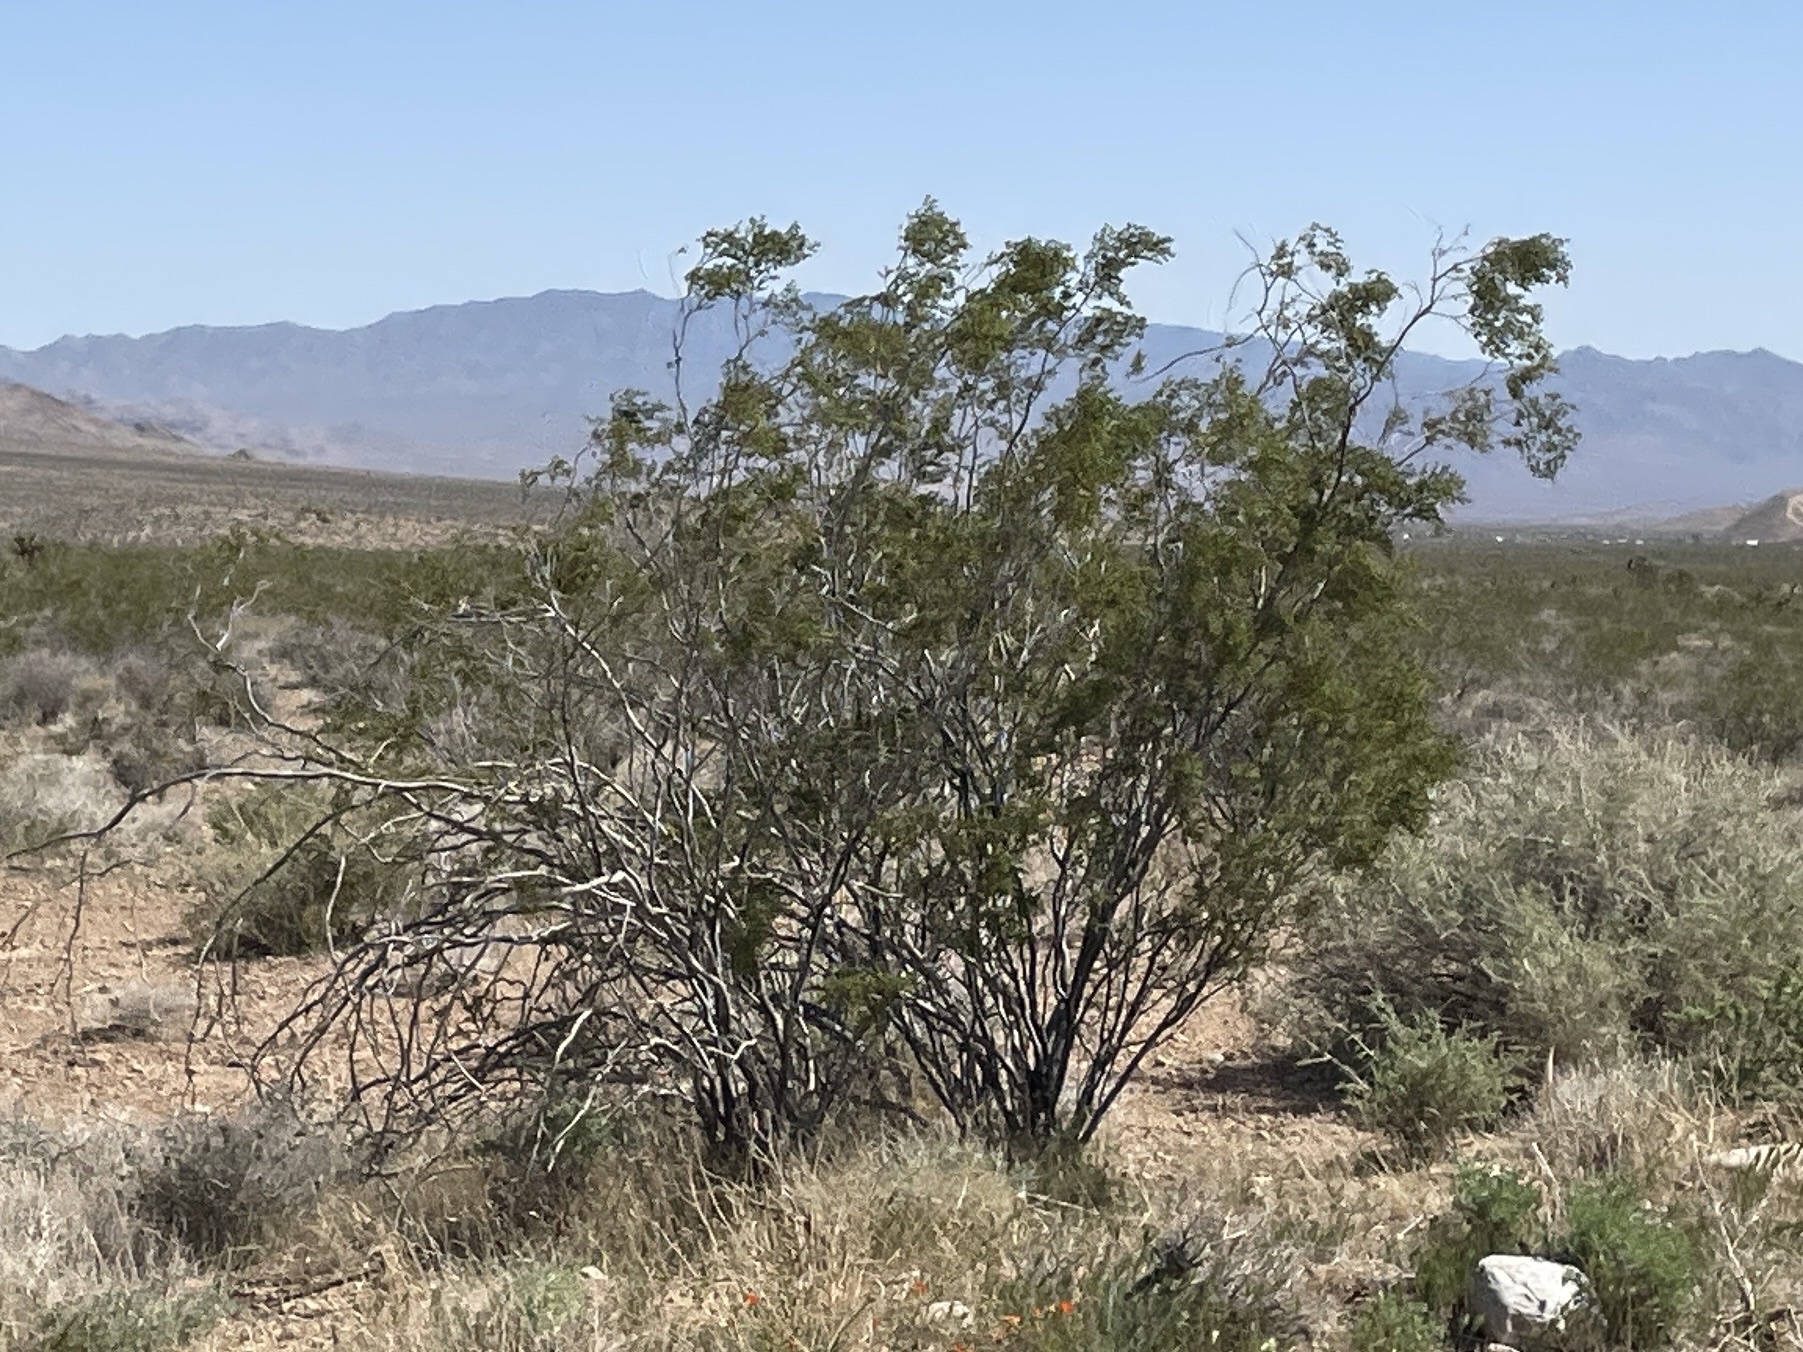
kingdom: Plantae
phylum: Tracheophyta
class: Magnoliopsida
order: Zygophyllales
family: Zygophyllaceae
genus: Larrea
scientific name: Larrea tridentata
